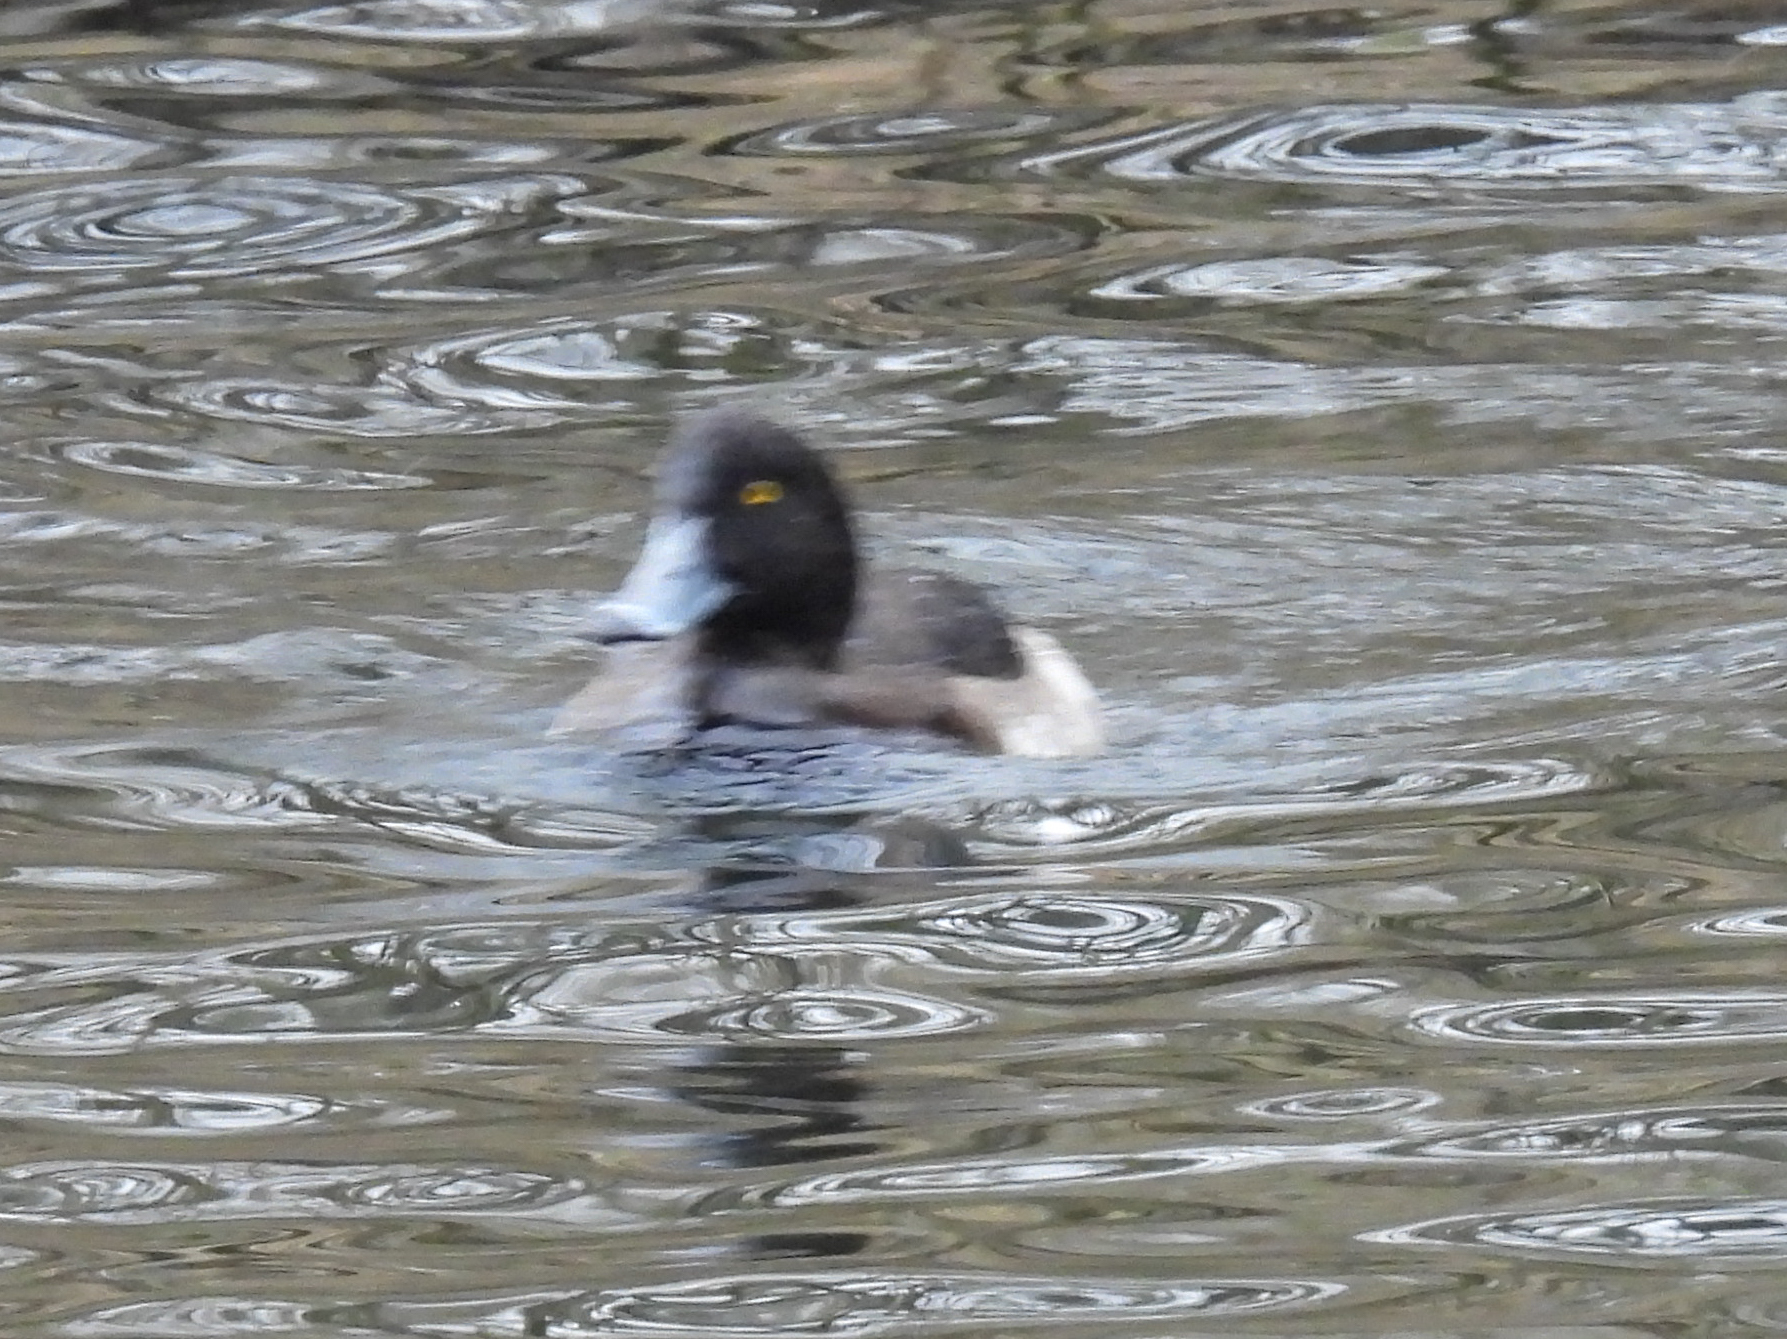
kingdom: Animalia
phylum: Chordata
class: Aves
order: Anseriformes
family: Anatidae
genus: Aythya
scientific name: Aythya fuligula
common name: Tufted duck
